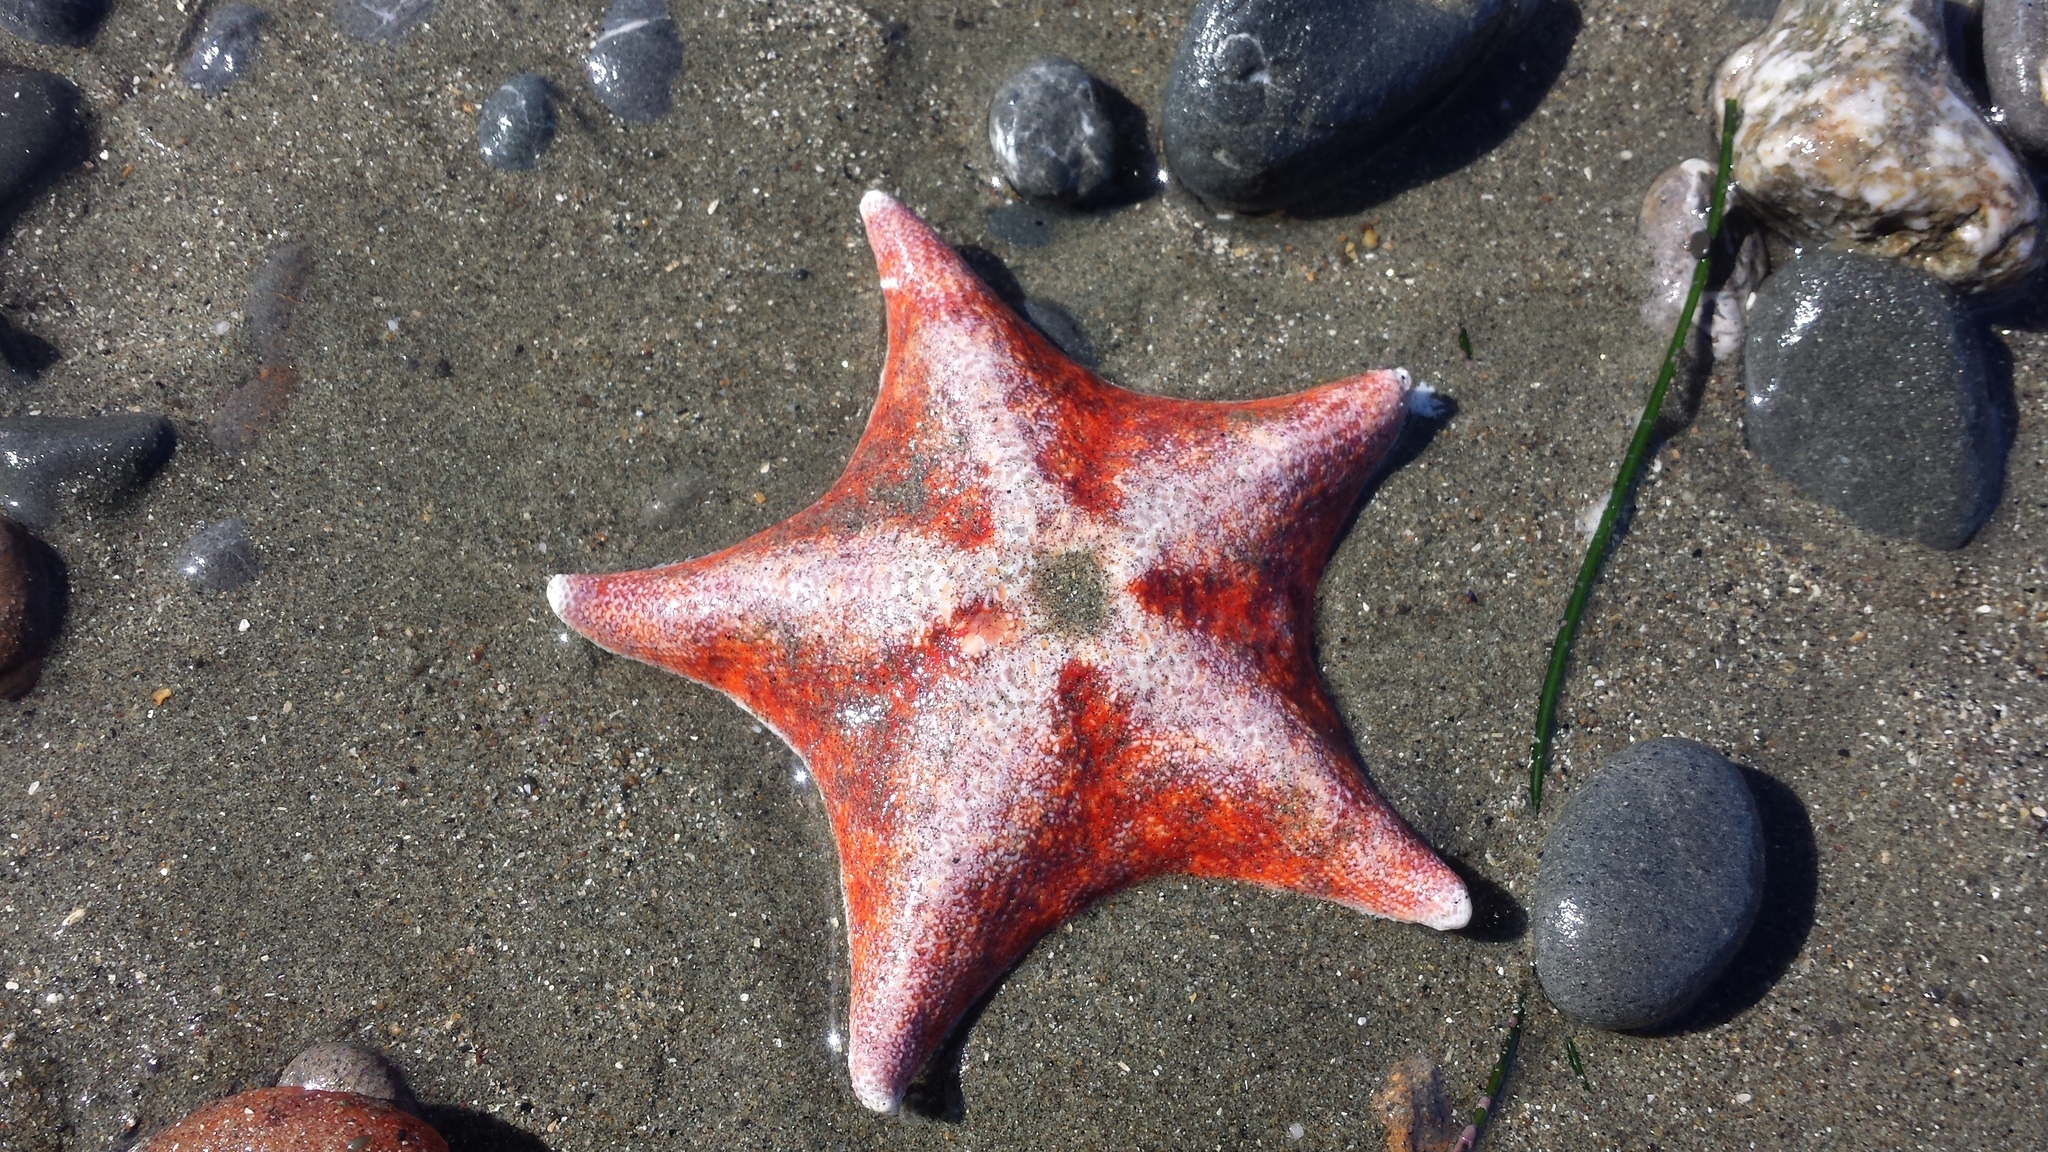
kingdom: Animalia
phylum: Echinodermata
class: Asteroidea
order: Valvatida
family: Asterinidae
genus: Patiria
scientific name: Patiria miniata
